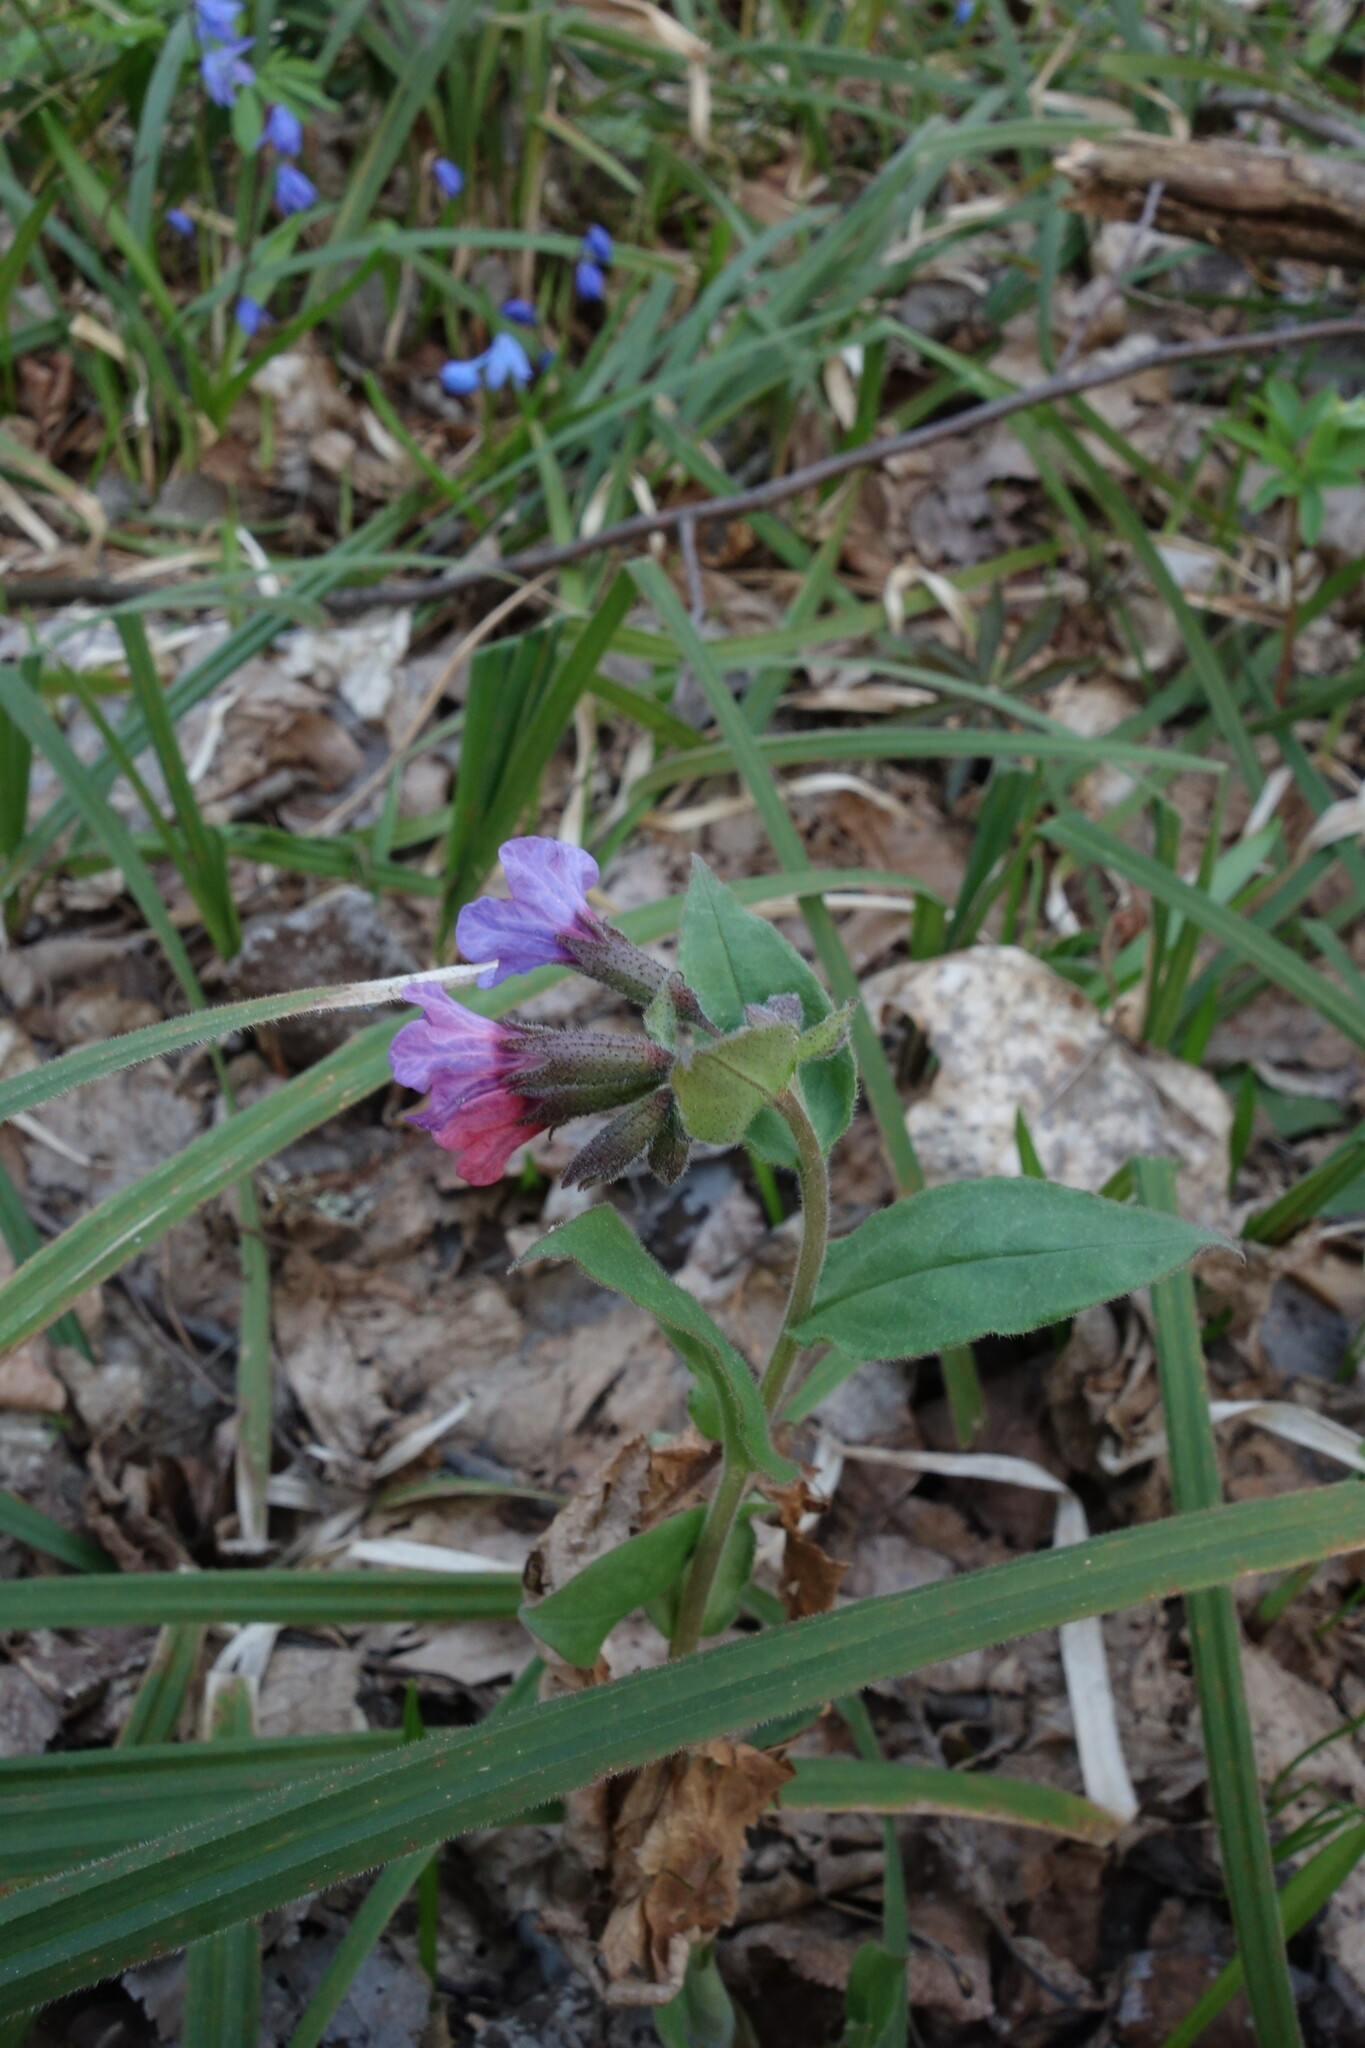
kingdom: Plantae
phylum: Tracheophyta
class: Magnoliopsida
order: Boraginales
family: Boraginaceae
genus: Pulmonaria
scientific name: Pulmonaria obscura
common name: Suffolk lungwort
